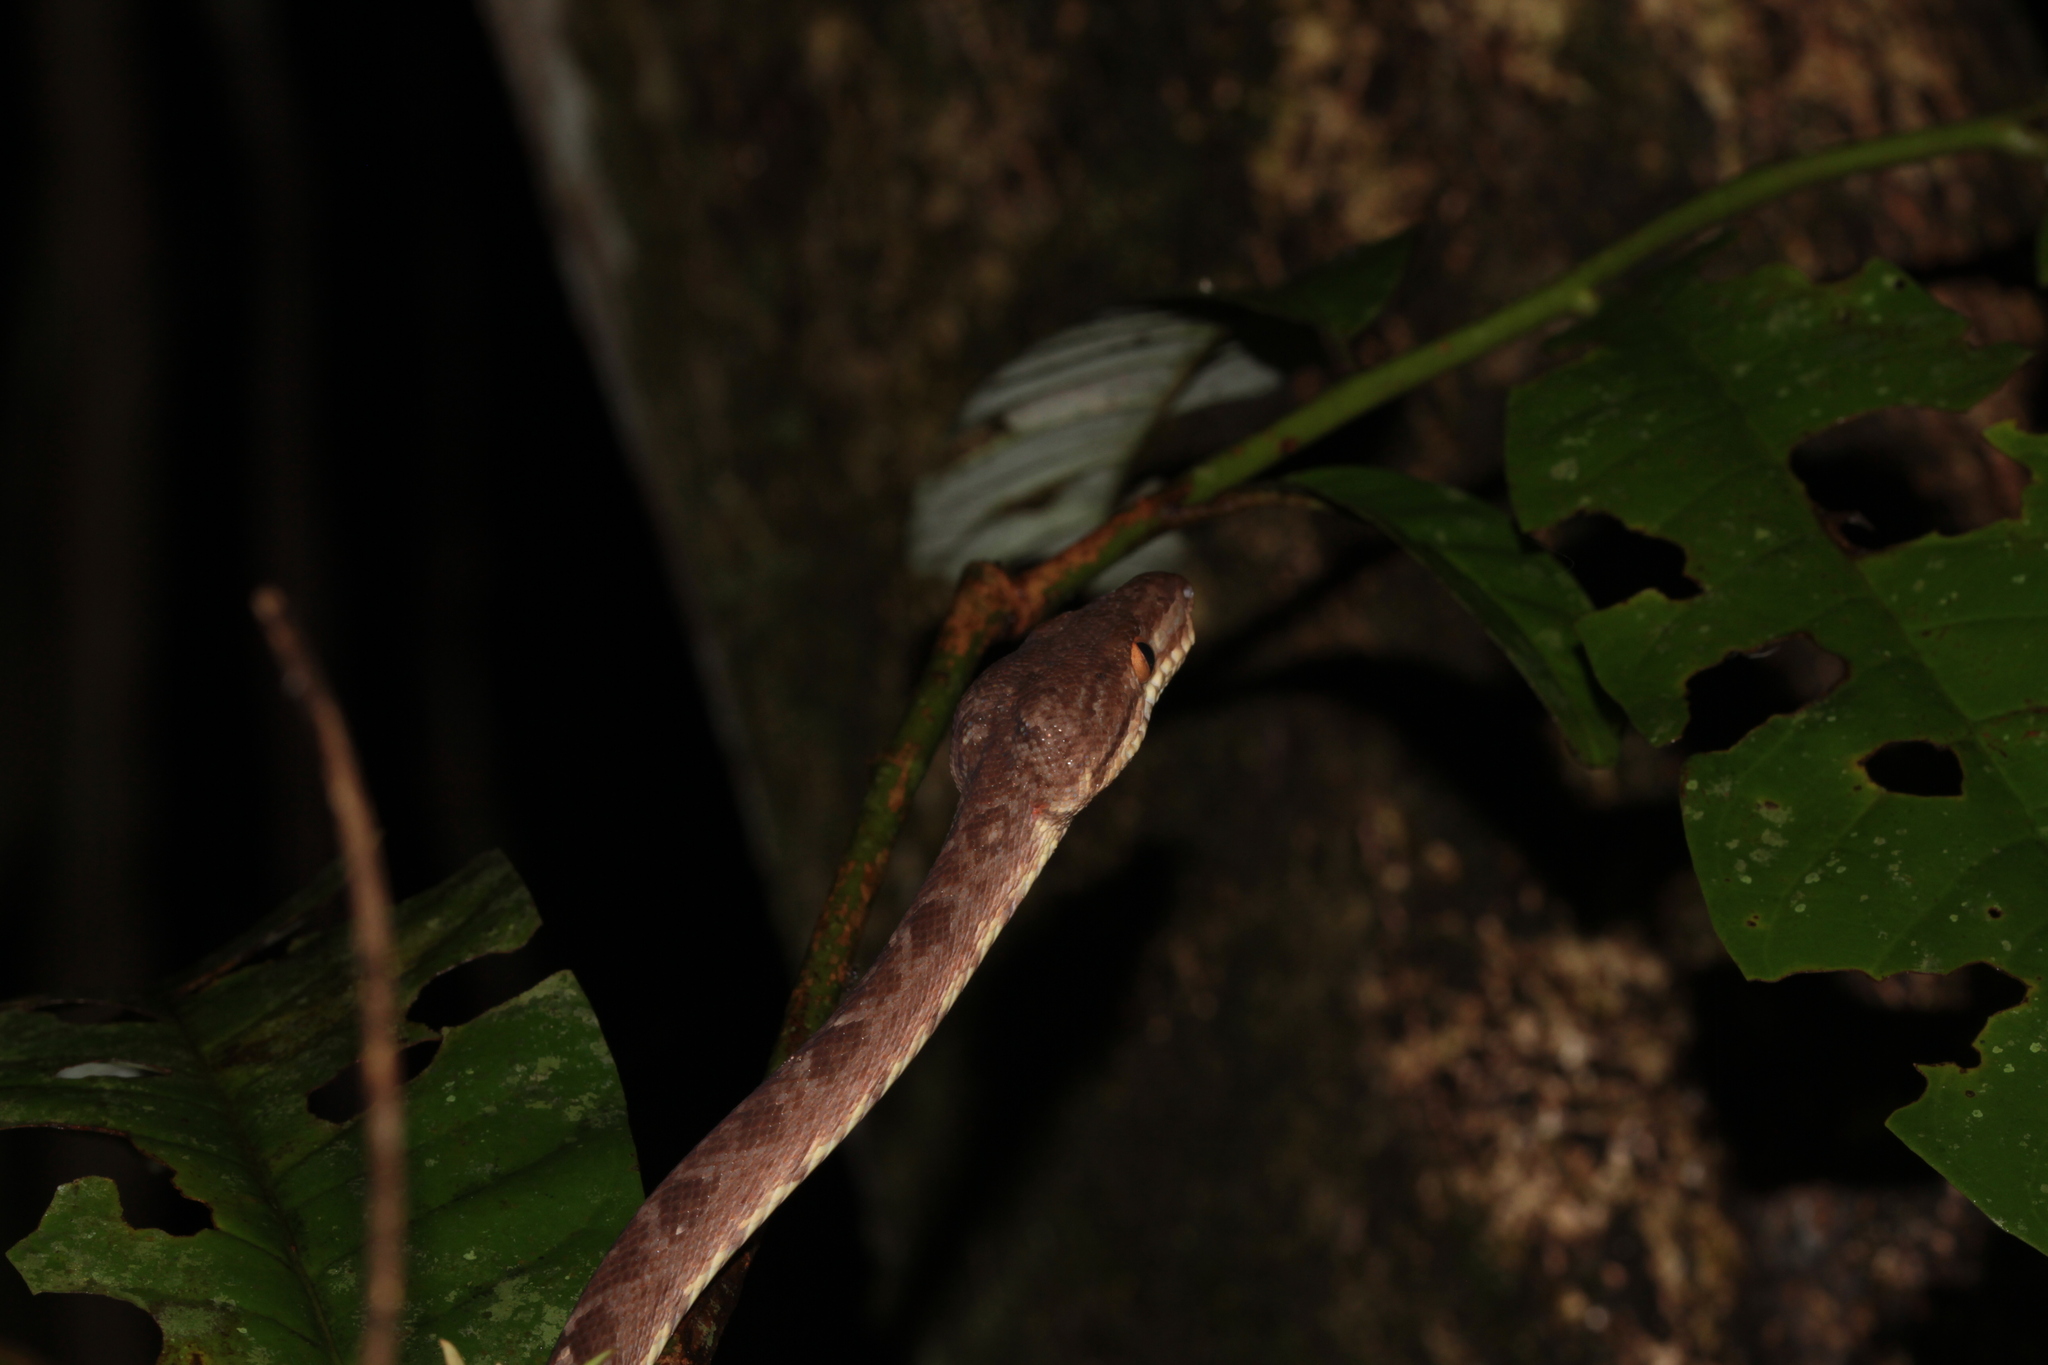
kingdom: Animalia
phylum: Chordata
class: Squamata
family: Boidae
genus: Corallus
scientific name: Corallus hortulana
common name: Garden tree boa
